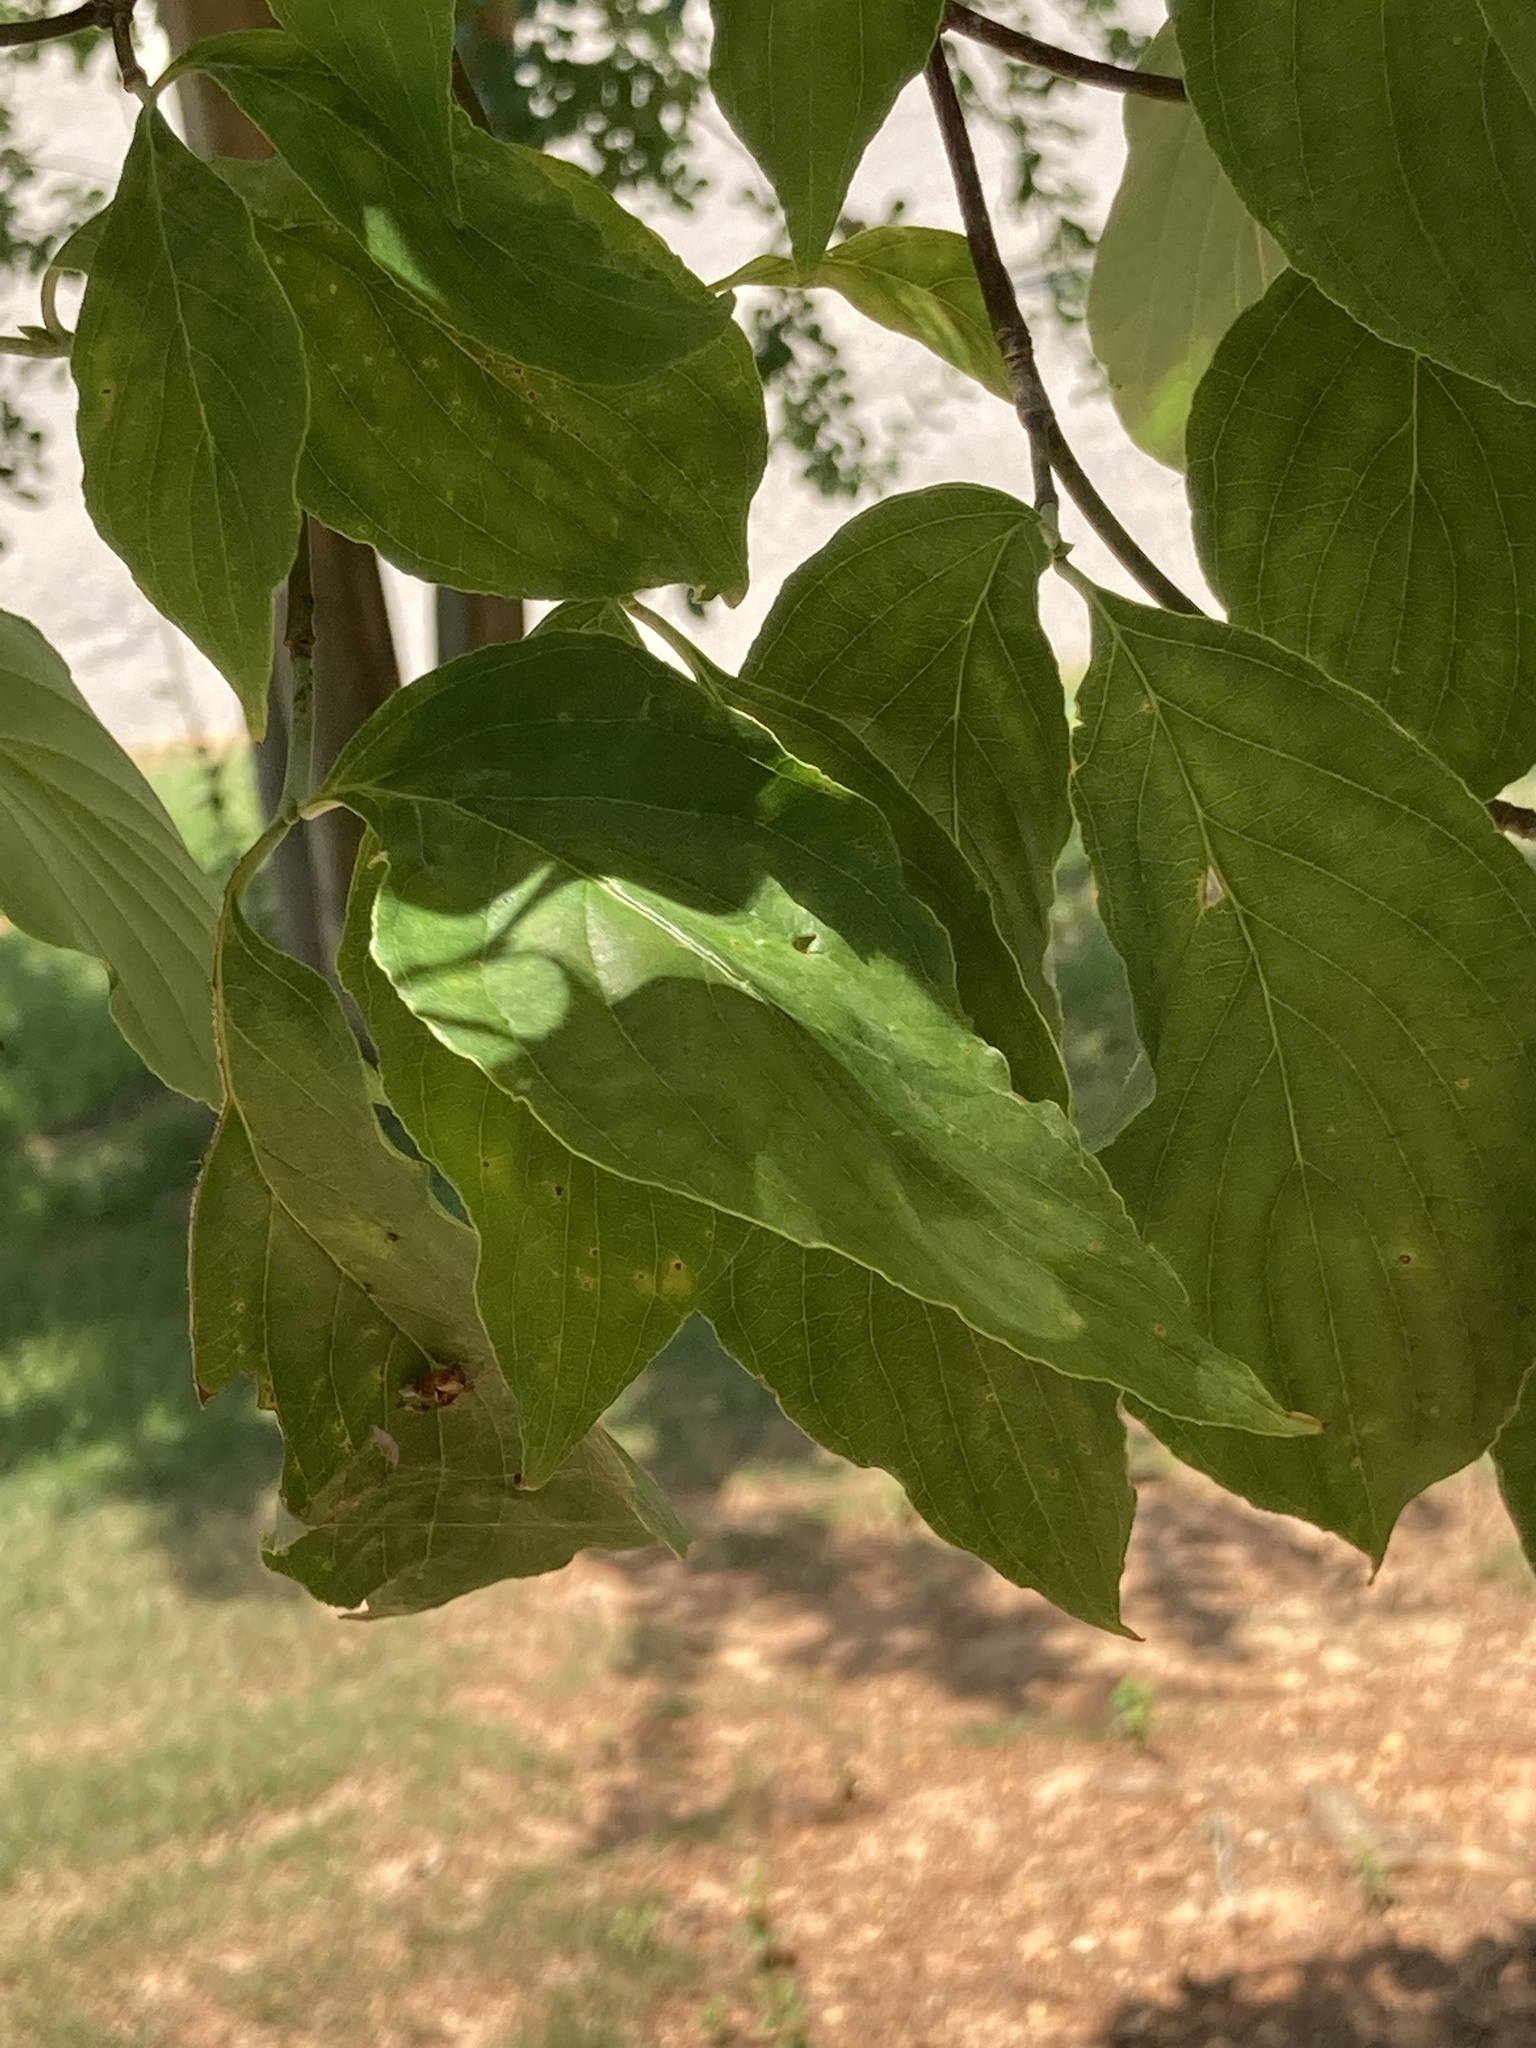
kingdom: Plantae
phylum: Tracheophyta
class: Magnoliopsida
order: Cornales
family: Cornaceae
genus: Cornus
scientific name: Cornus florida
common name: Flowering dogwood
